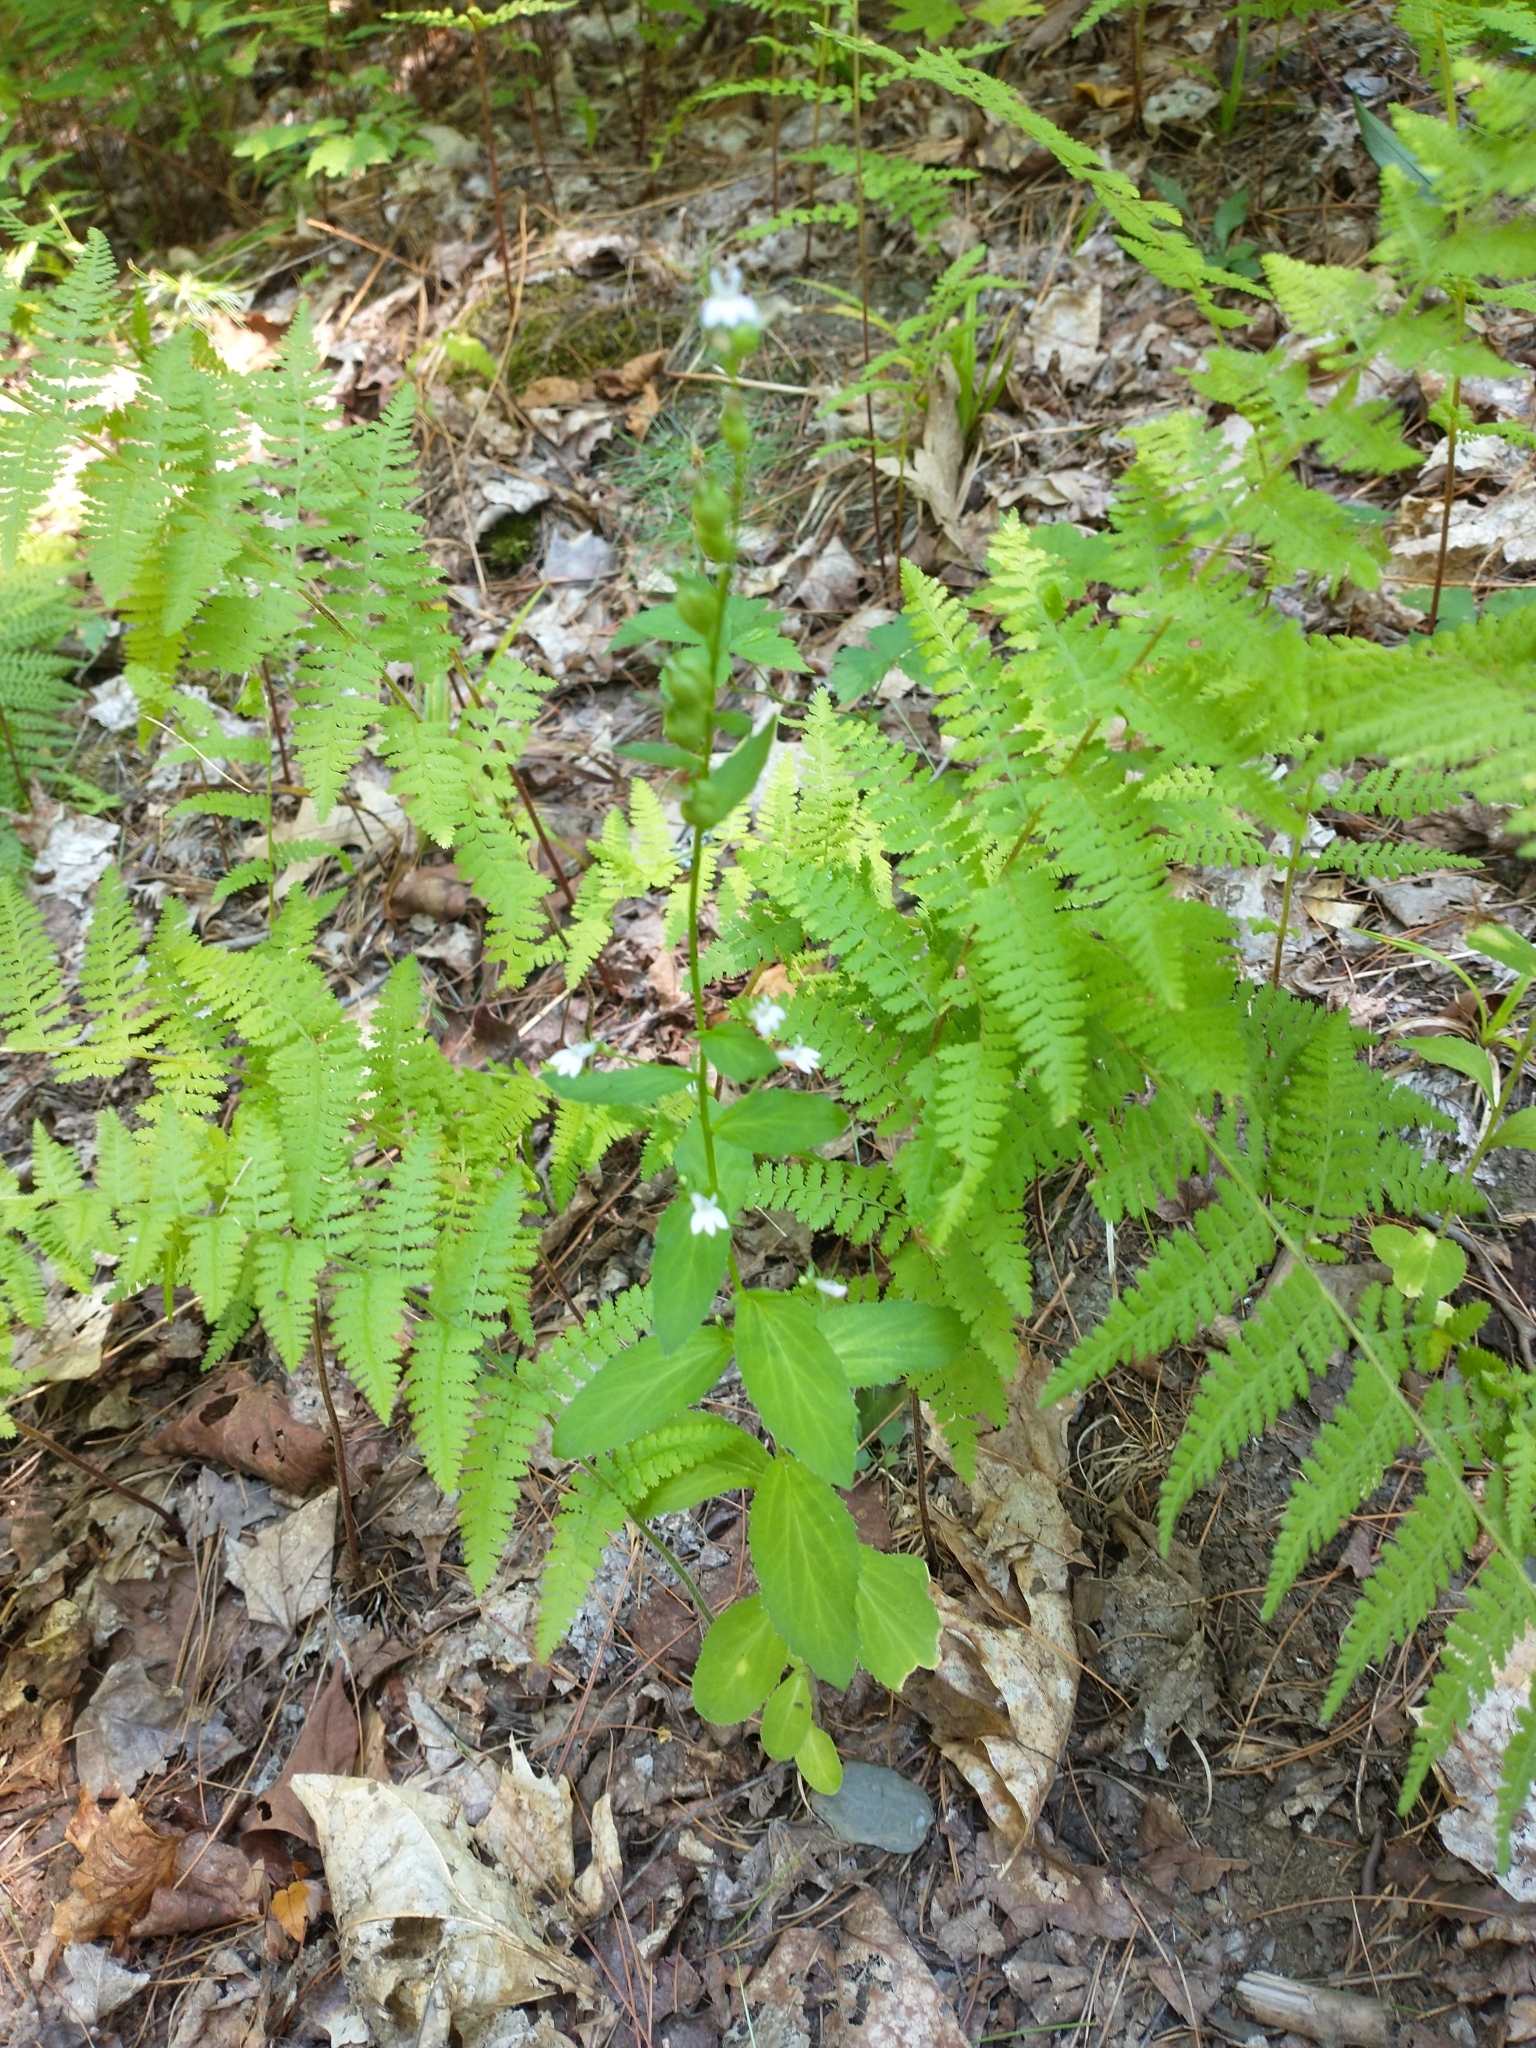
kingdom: Plantae
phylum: Tracheophyta
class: Magnoliopsida
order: Asterales
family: Campanulaceae
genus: Lobelia
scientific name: Lobelia inflata
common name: Indian tobacco
